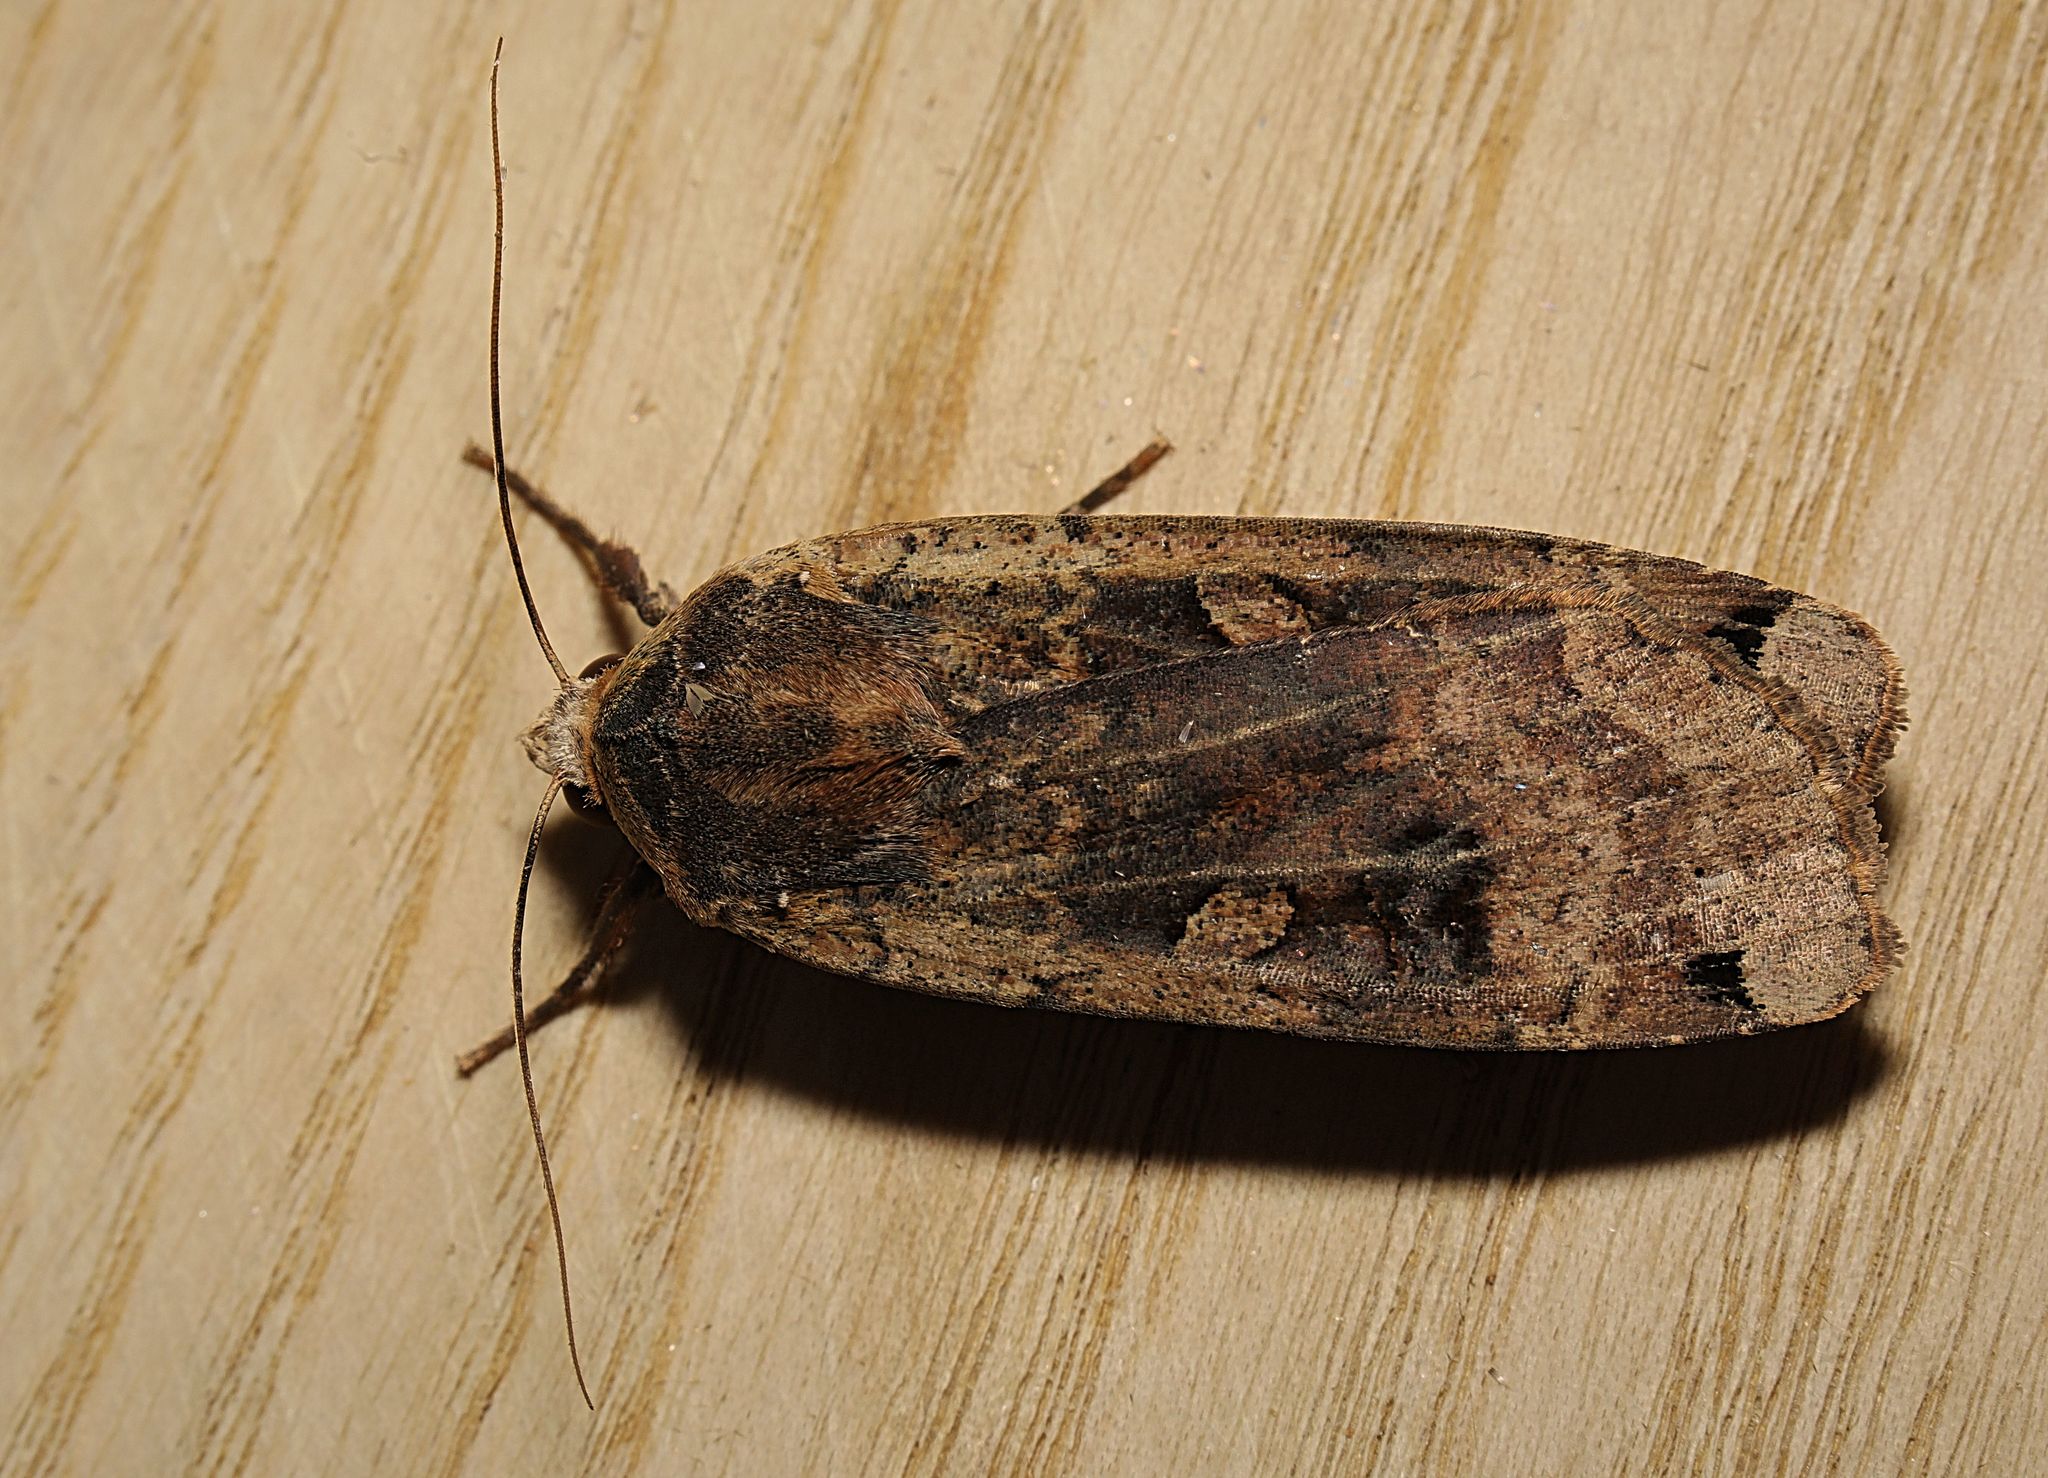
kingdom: Animalia
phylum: Arthropoda
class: Insecta
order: Lepidoptera
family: Noctuidae
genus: Noctua
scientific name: Noctua pronuba
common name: Large yellow underwing
